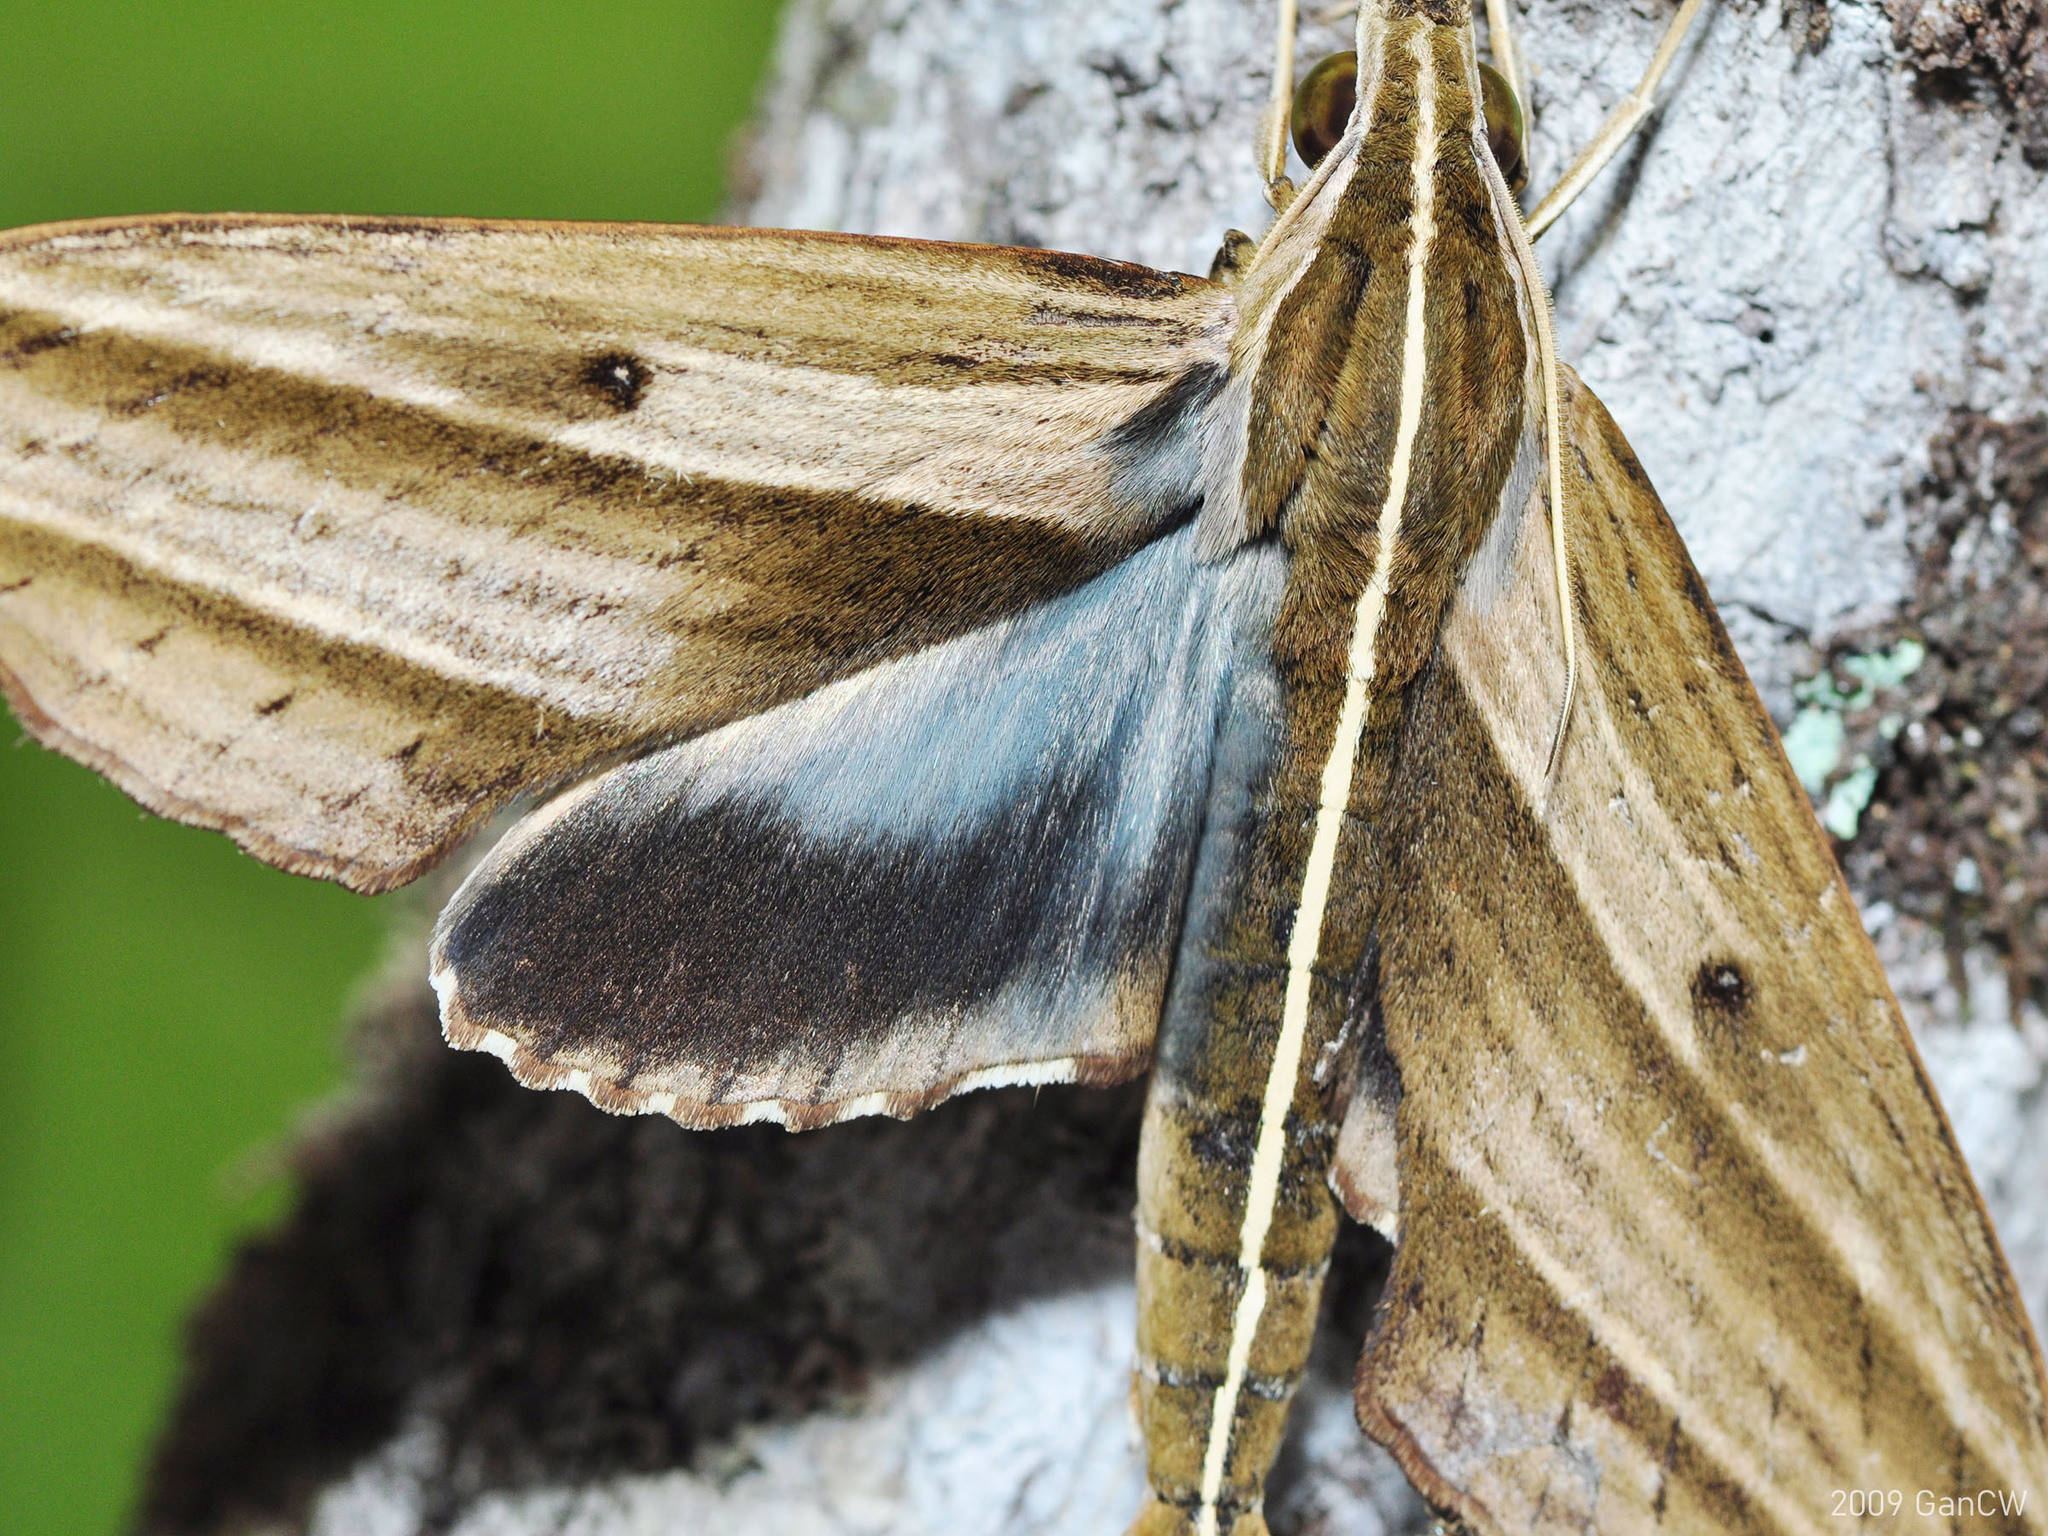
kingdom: Animalia
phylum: Arthropoda
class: Insecta
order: Lepidoptera
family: Sphingidae
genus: Elibia
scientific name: Elibia dolichus
